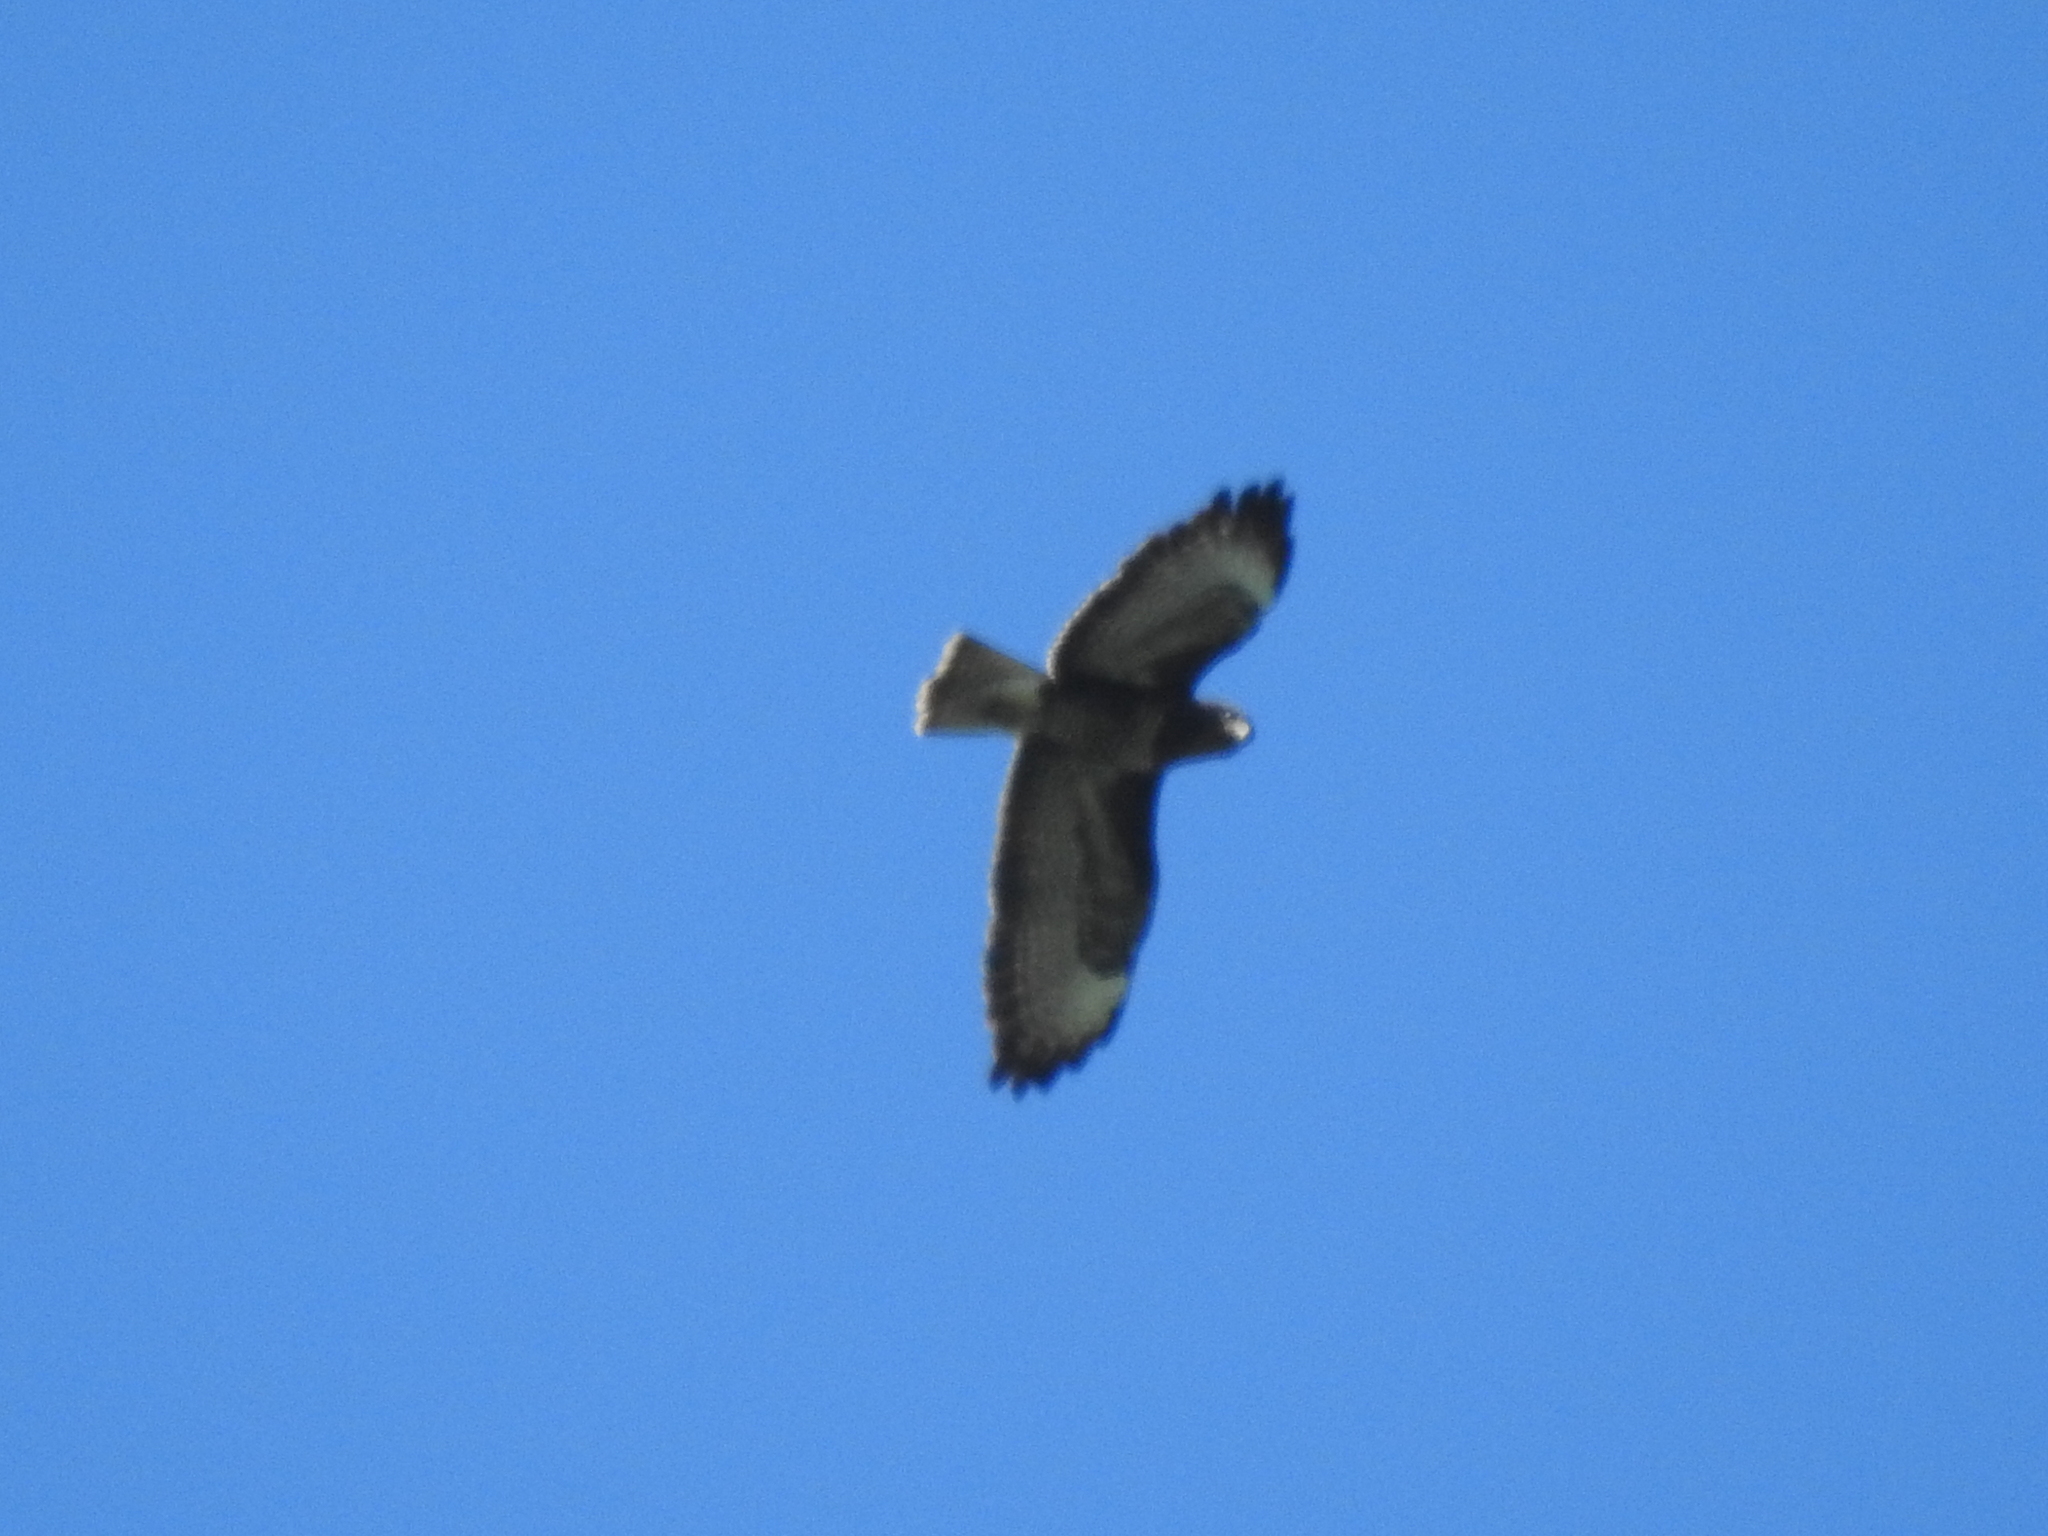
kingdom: Animalia
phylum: Chordata
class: Aves
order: Accipitriformes
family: Accipitridae
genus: Buteo
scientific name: Buteo buteo
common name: Common buzzard
